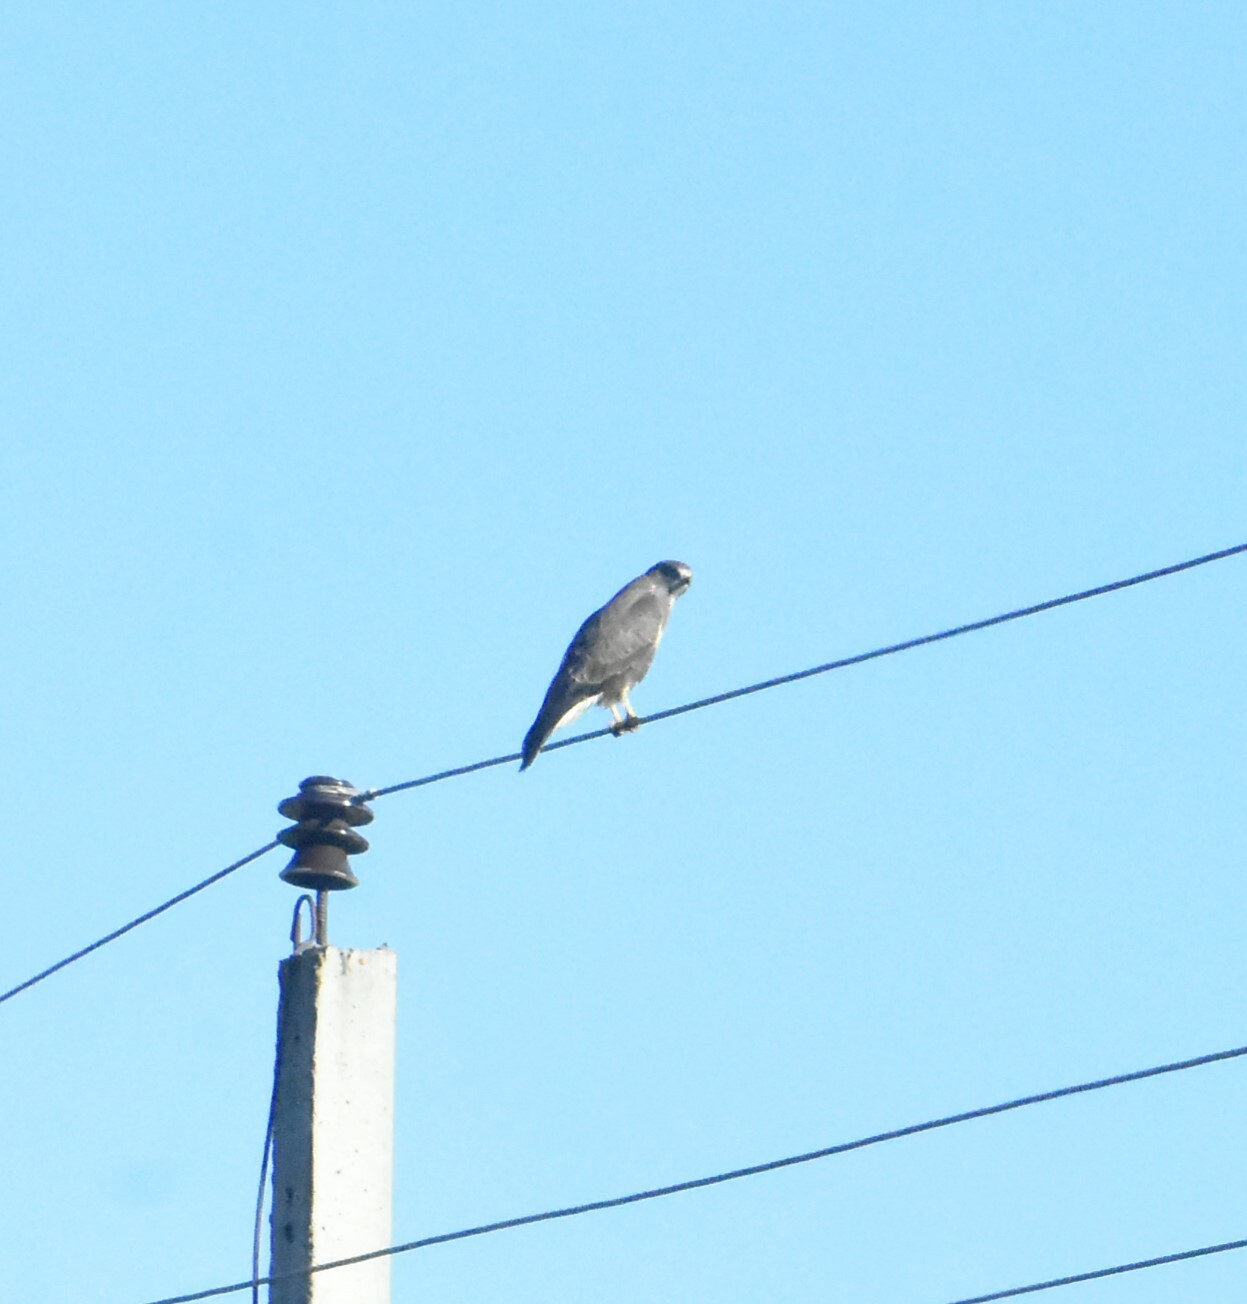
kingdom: Animalia
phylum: Chordata
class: Aves
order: Accipitriformes
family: Accipitridae
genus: Buteo
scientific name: Buteo buteo
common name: Common buzzard
